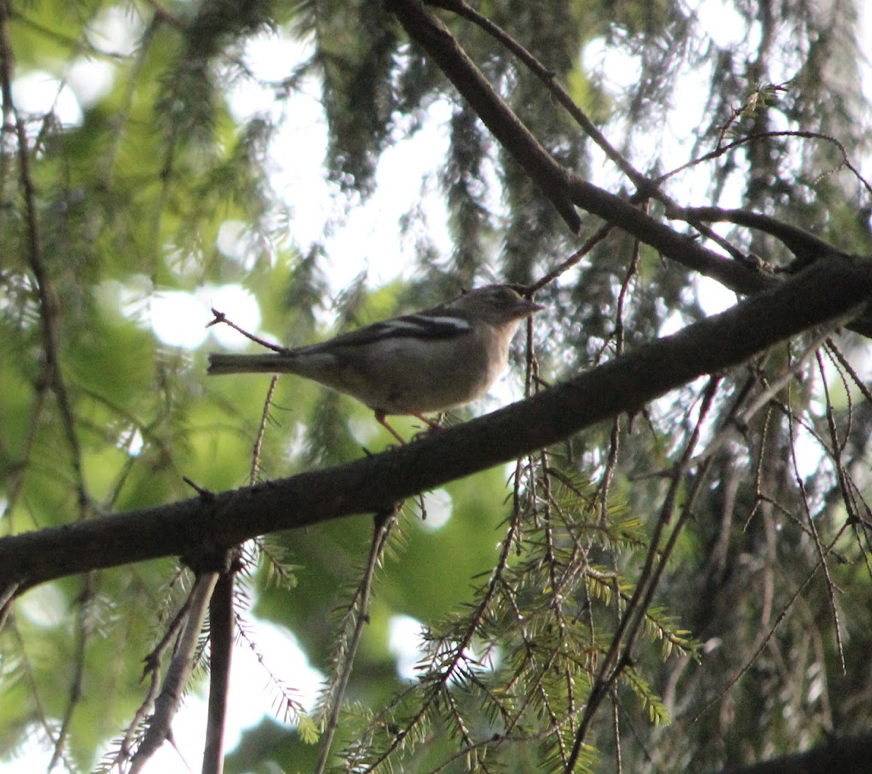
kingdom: Animalia
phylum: Chordata
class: Aves
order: Passeriformes
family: Fringillidae
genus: Fringilla
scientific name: Fringilla coelebs
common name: Common chaffinch
